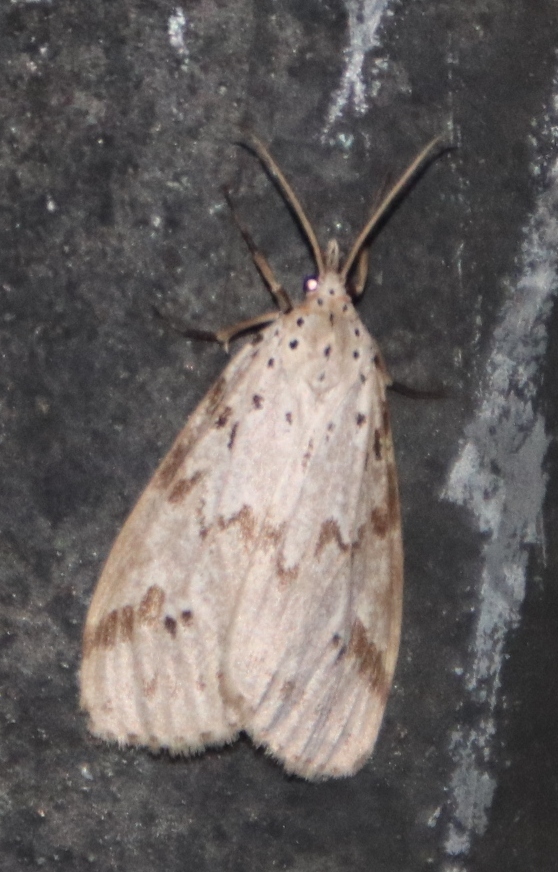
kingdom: Animalia
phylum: Arthropoda
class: Insecta
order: Lepidoptera
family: Erebidae
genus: Galtara
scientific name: Galtara rostrata
